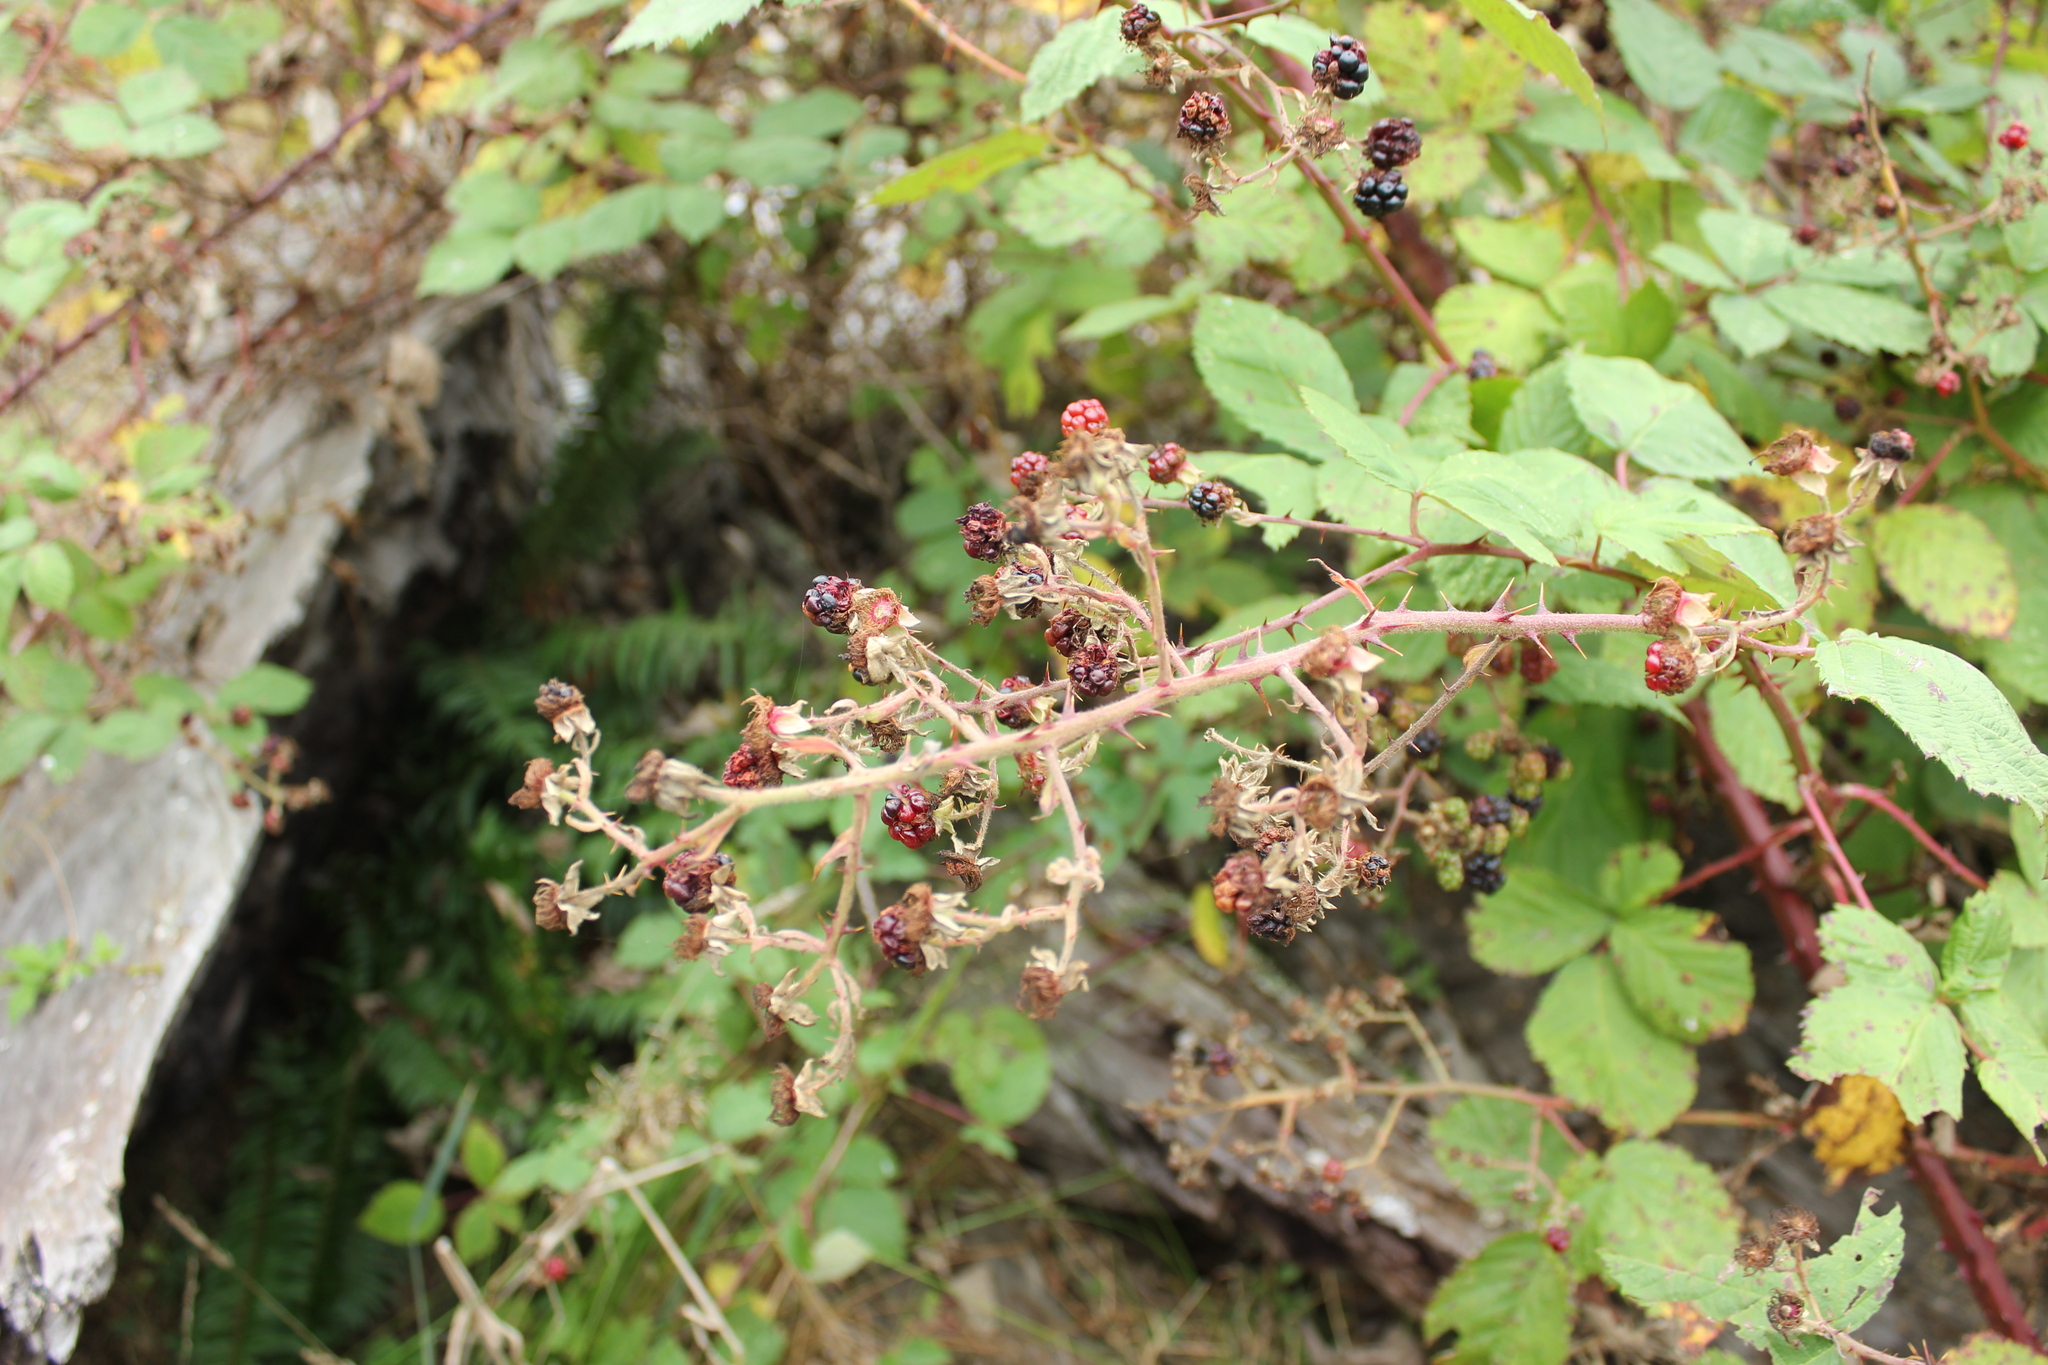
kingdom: Plantae
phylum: Tracheophyta
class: Magnoliopsida
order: Rosales
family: Rosaceae
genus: Rubus
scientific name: Rubus armeniacus
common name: Himalayan blackberry
